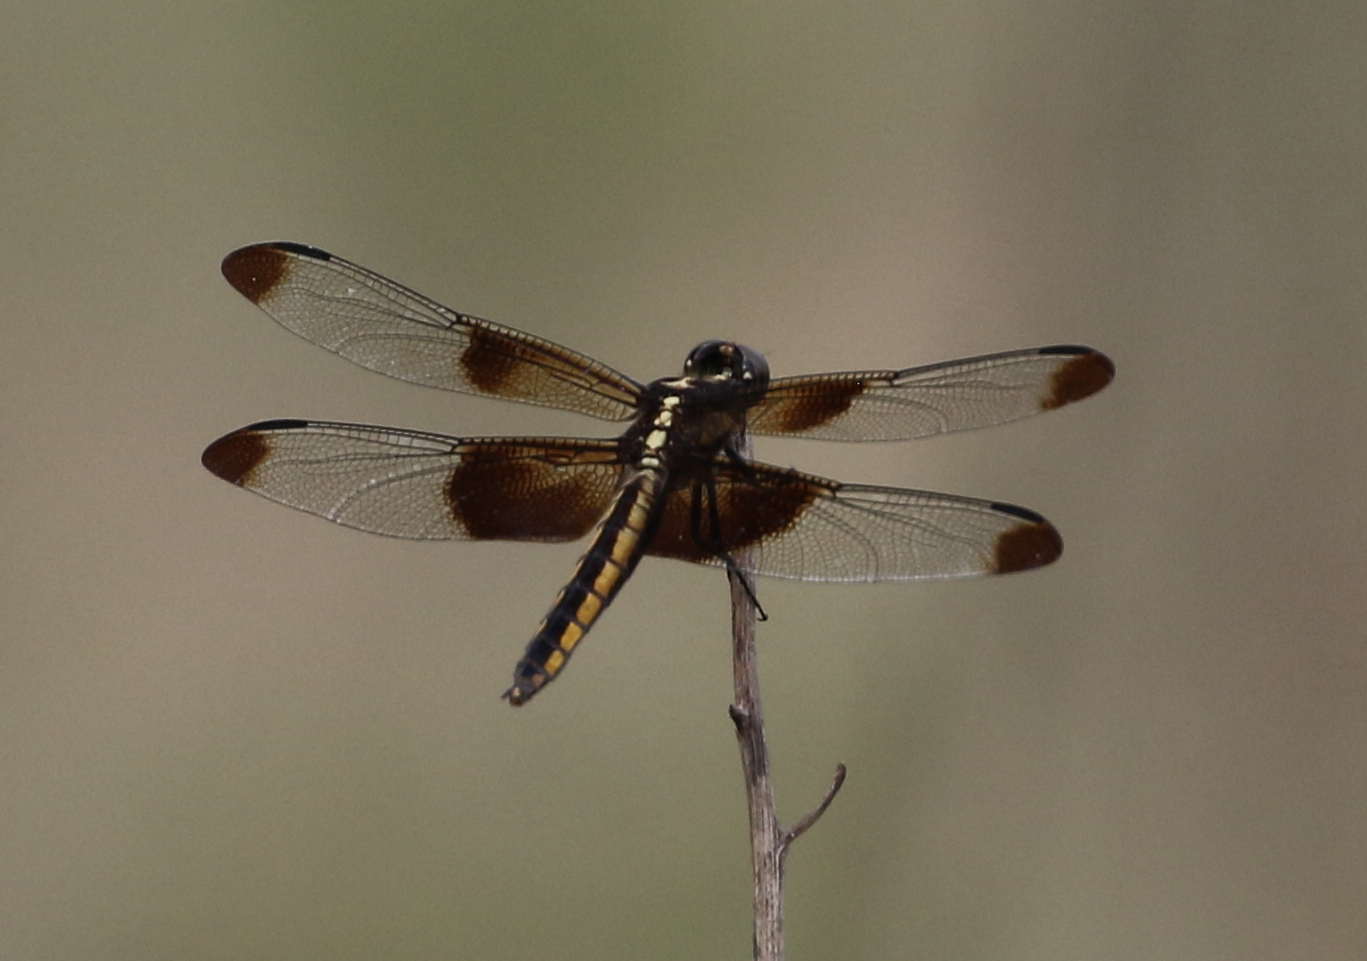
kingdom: Animalia
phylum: Arthropoda
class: Insecta
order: Odonata
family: Libellulidae
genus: Libellula
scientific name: Libellula luctuosa
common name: Widow skimmer
